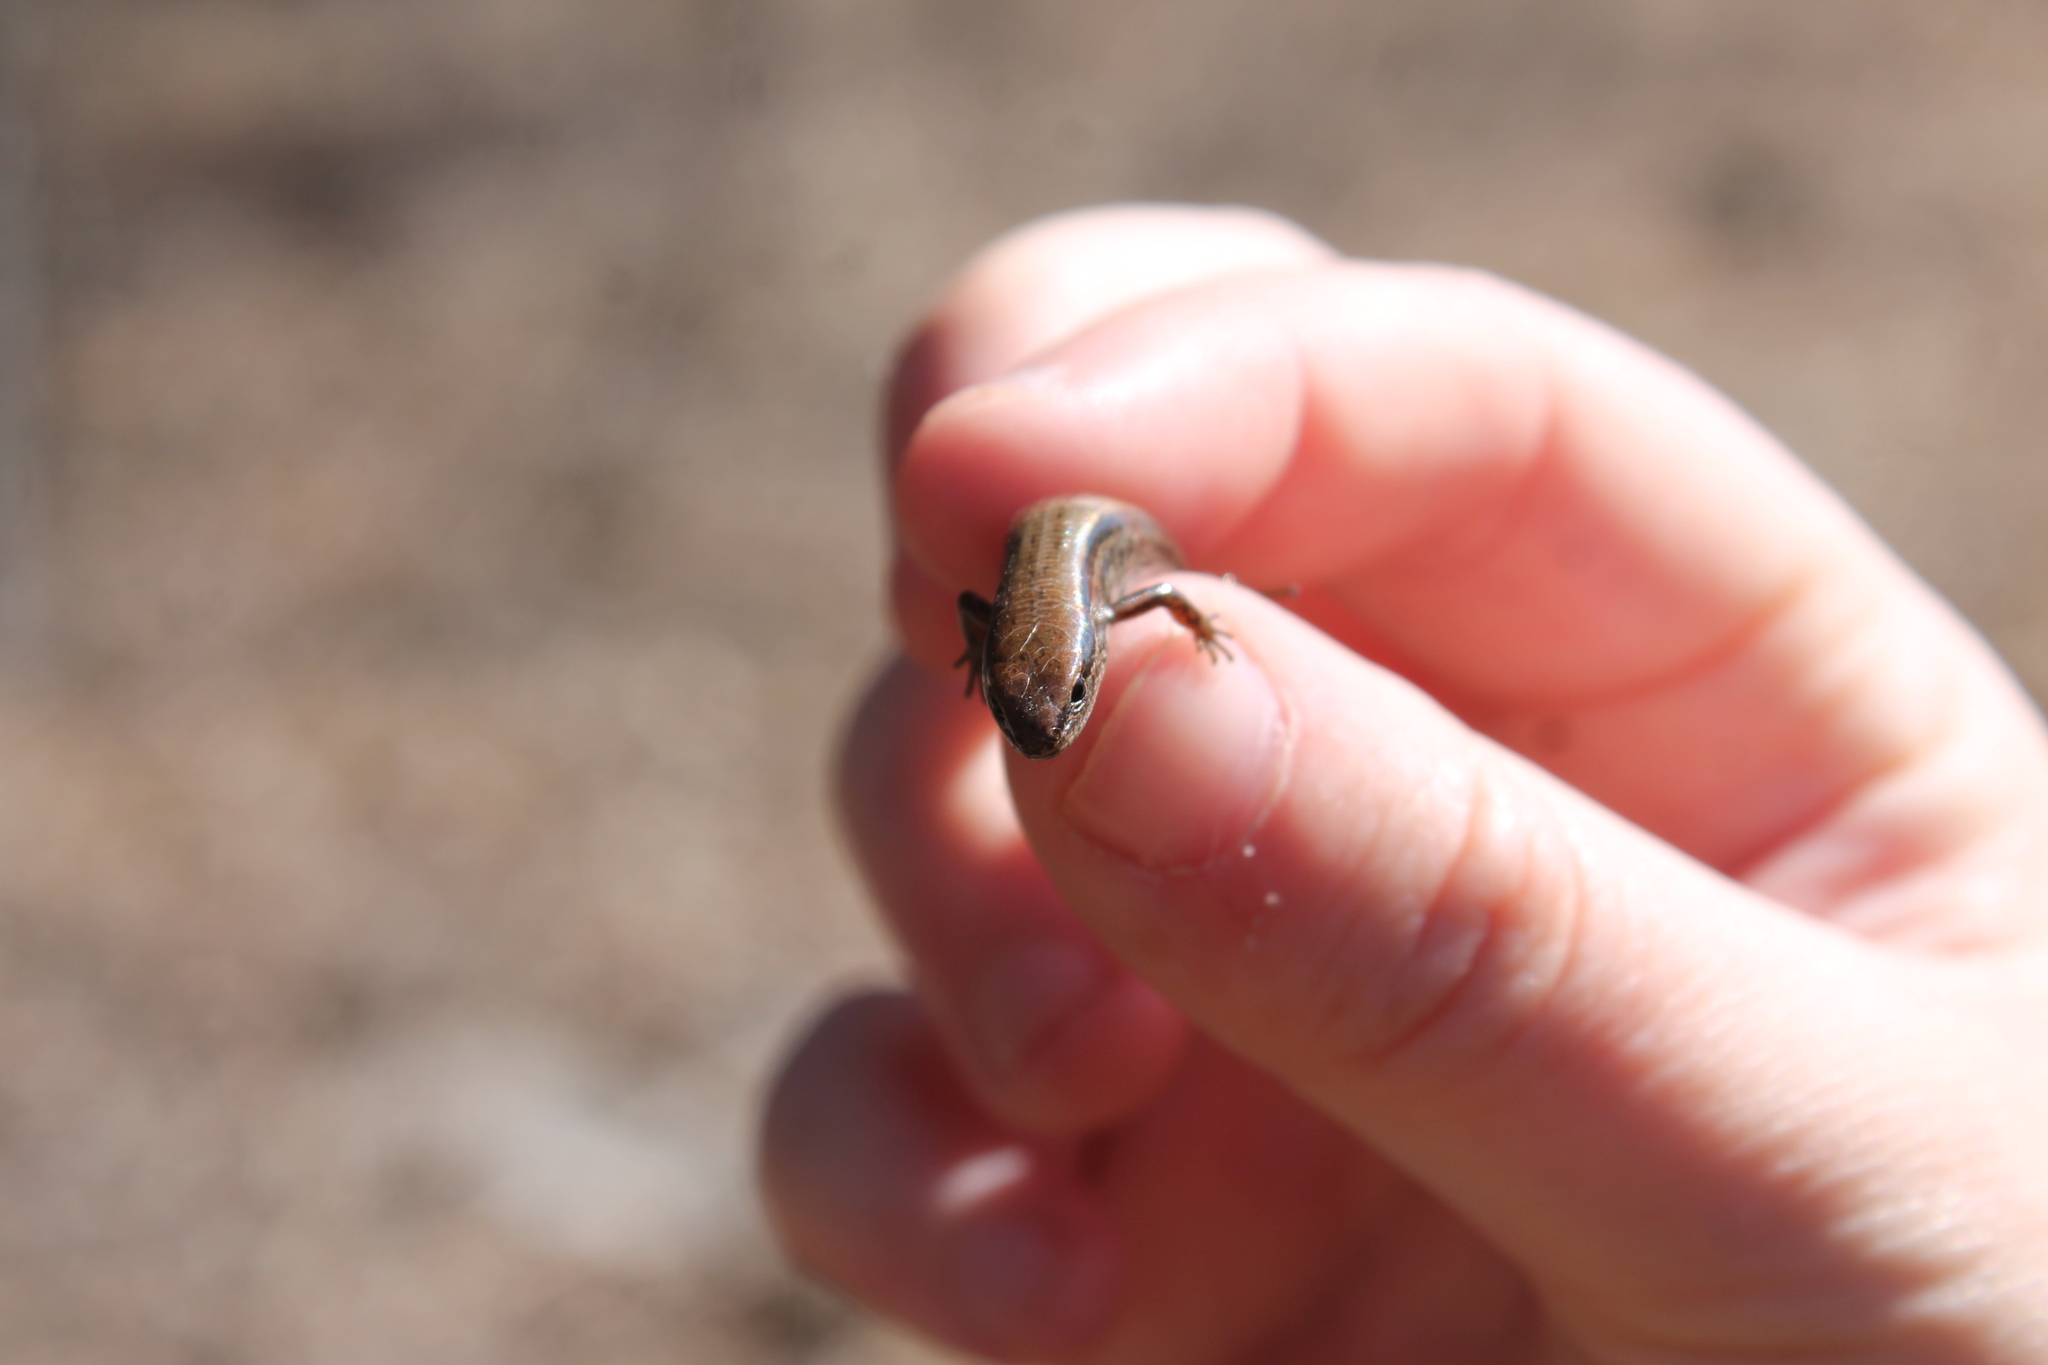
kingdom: Animalia
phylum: Chordata
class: Squamata
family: Scincidae
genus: Scincella
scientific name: Scincella lateralis
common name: Ground skink
